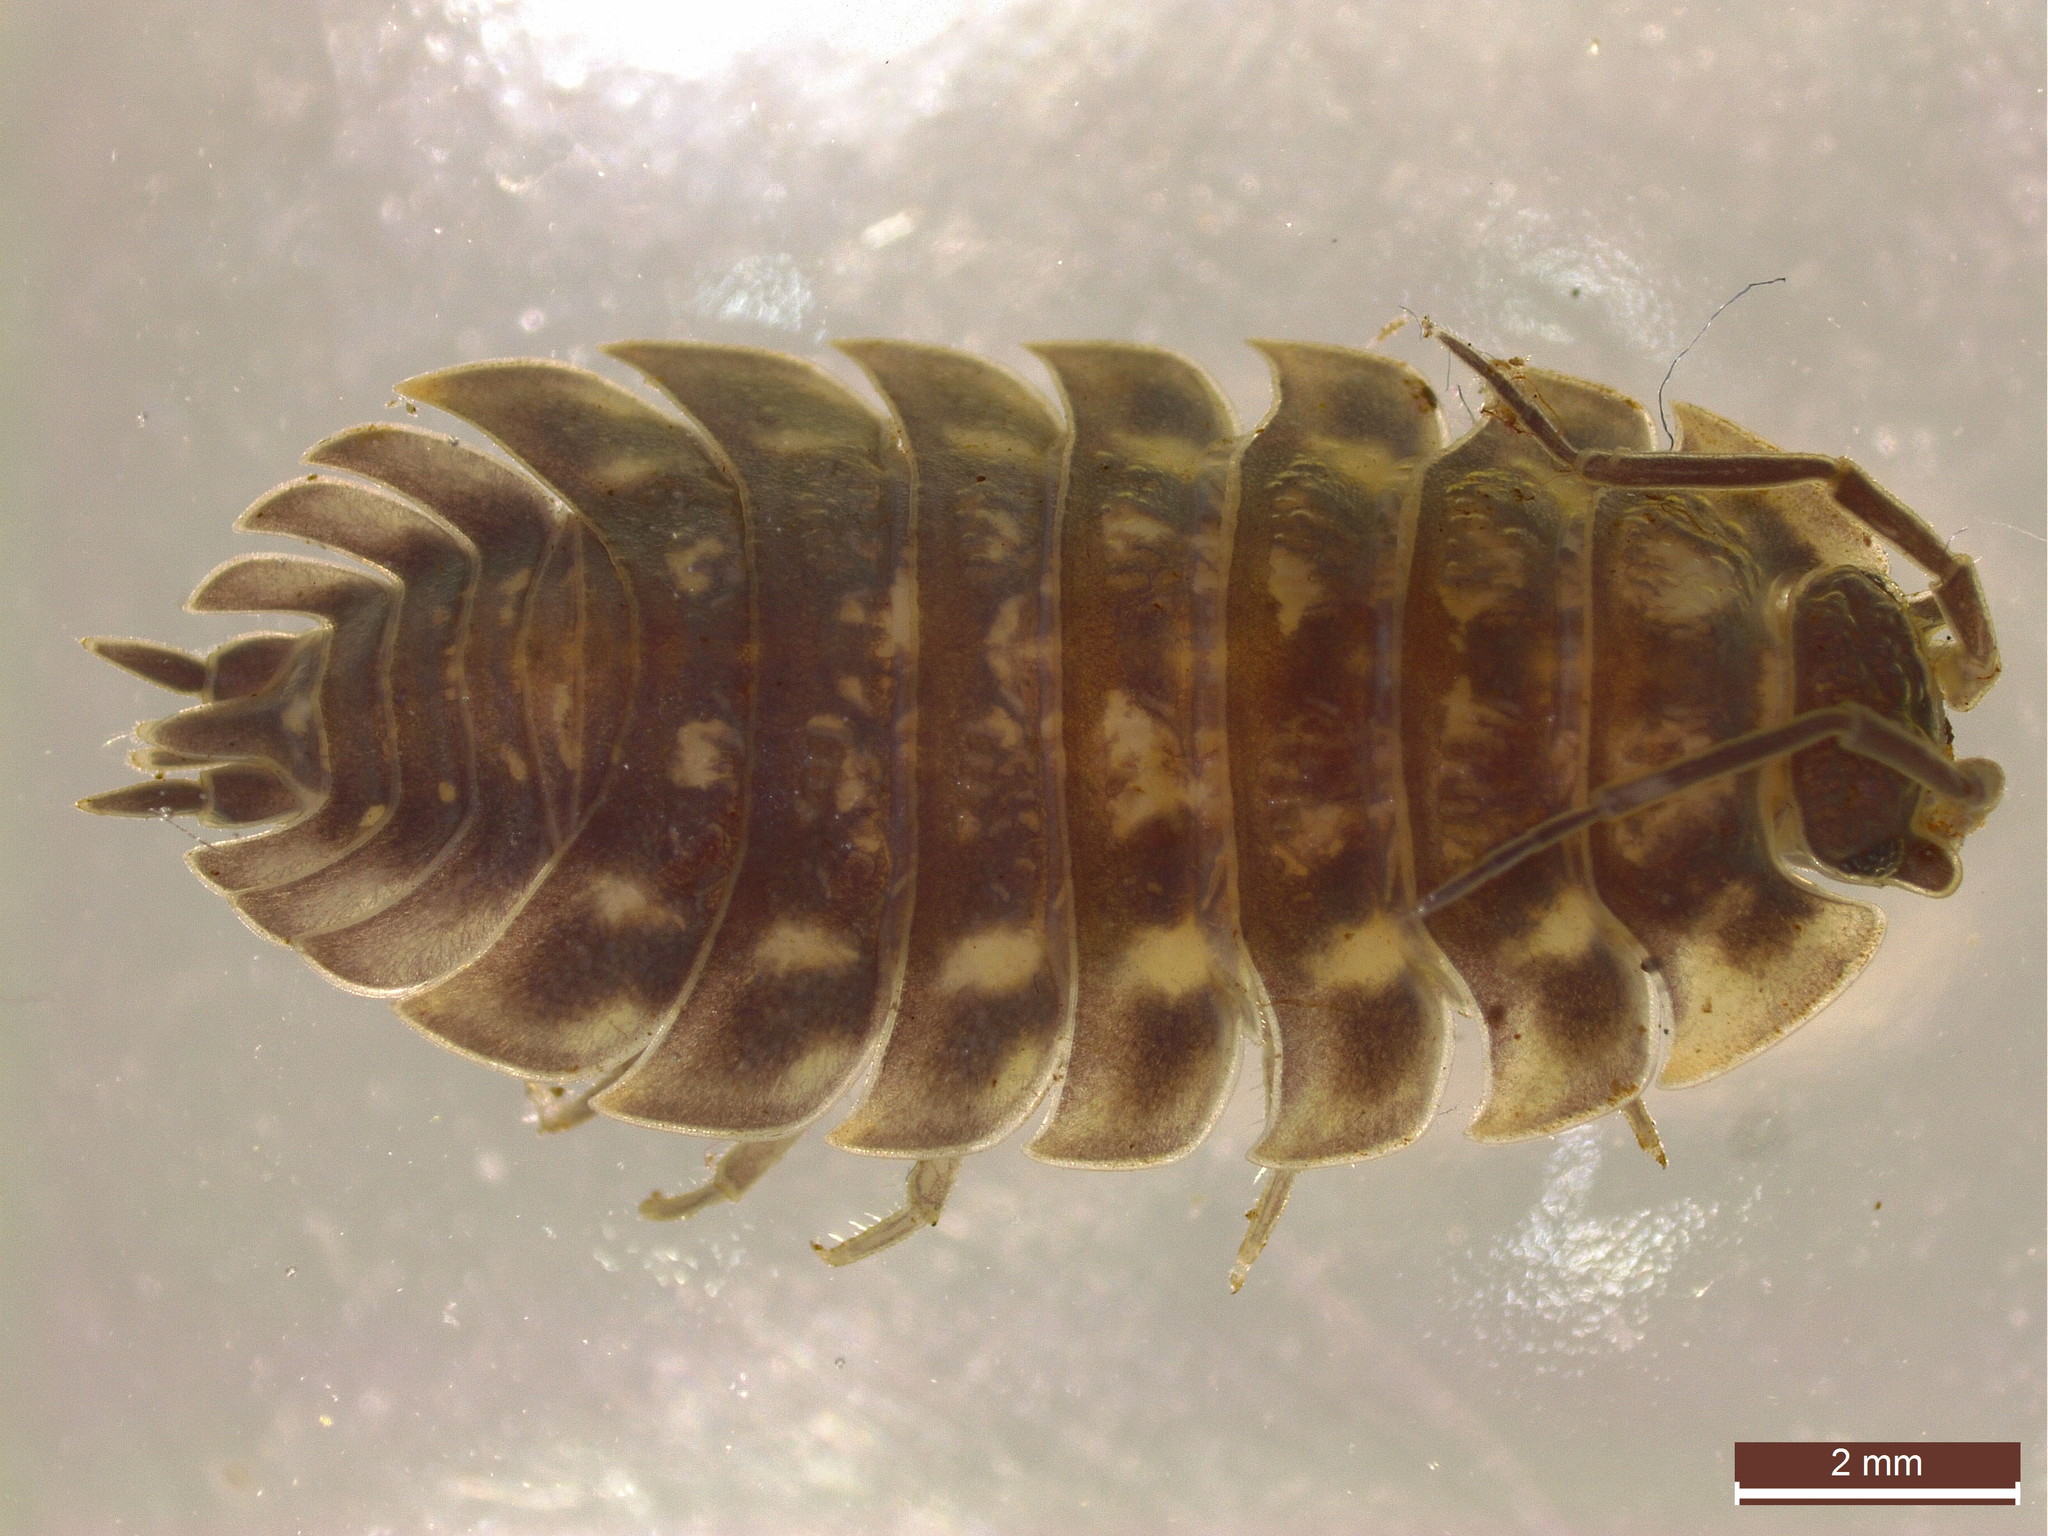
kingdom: Animalia
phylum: Arthropoda
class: Malacostraca
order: Isopoda
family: Oniscidae
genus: Oniscus
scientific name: Oniscus asellus
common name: Common shiny woodlouse
